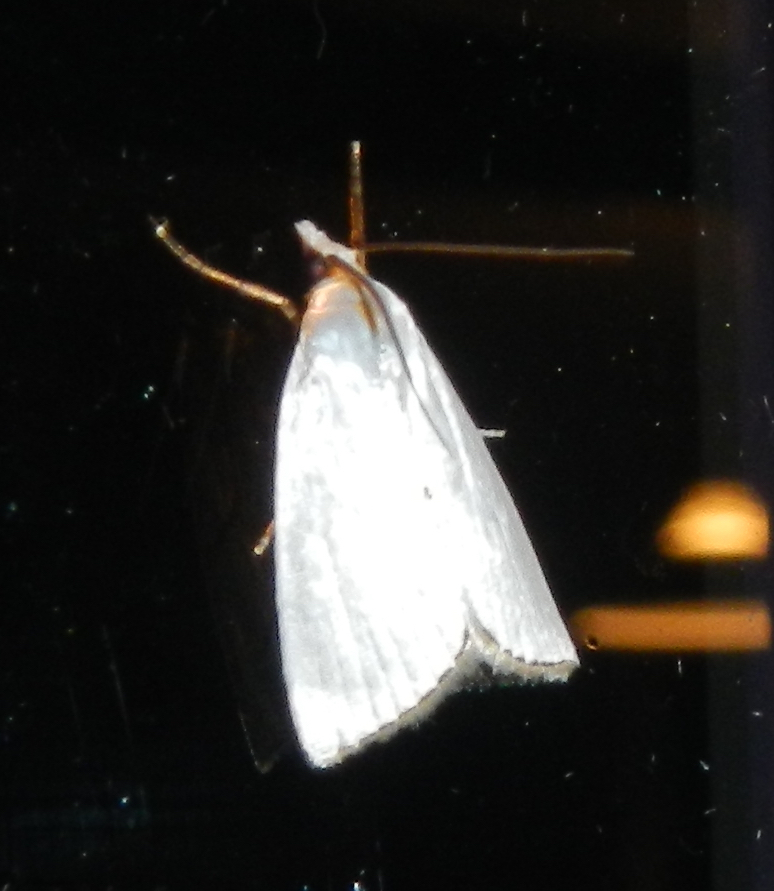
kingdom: Animalia
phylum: Arthropoda
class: Insecta
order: Lepidoptera
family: Crambidae
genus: Argyria
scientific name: Argyria nivalis
